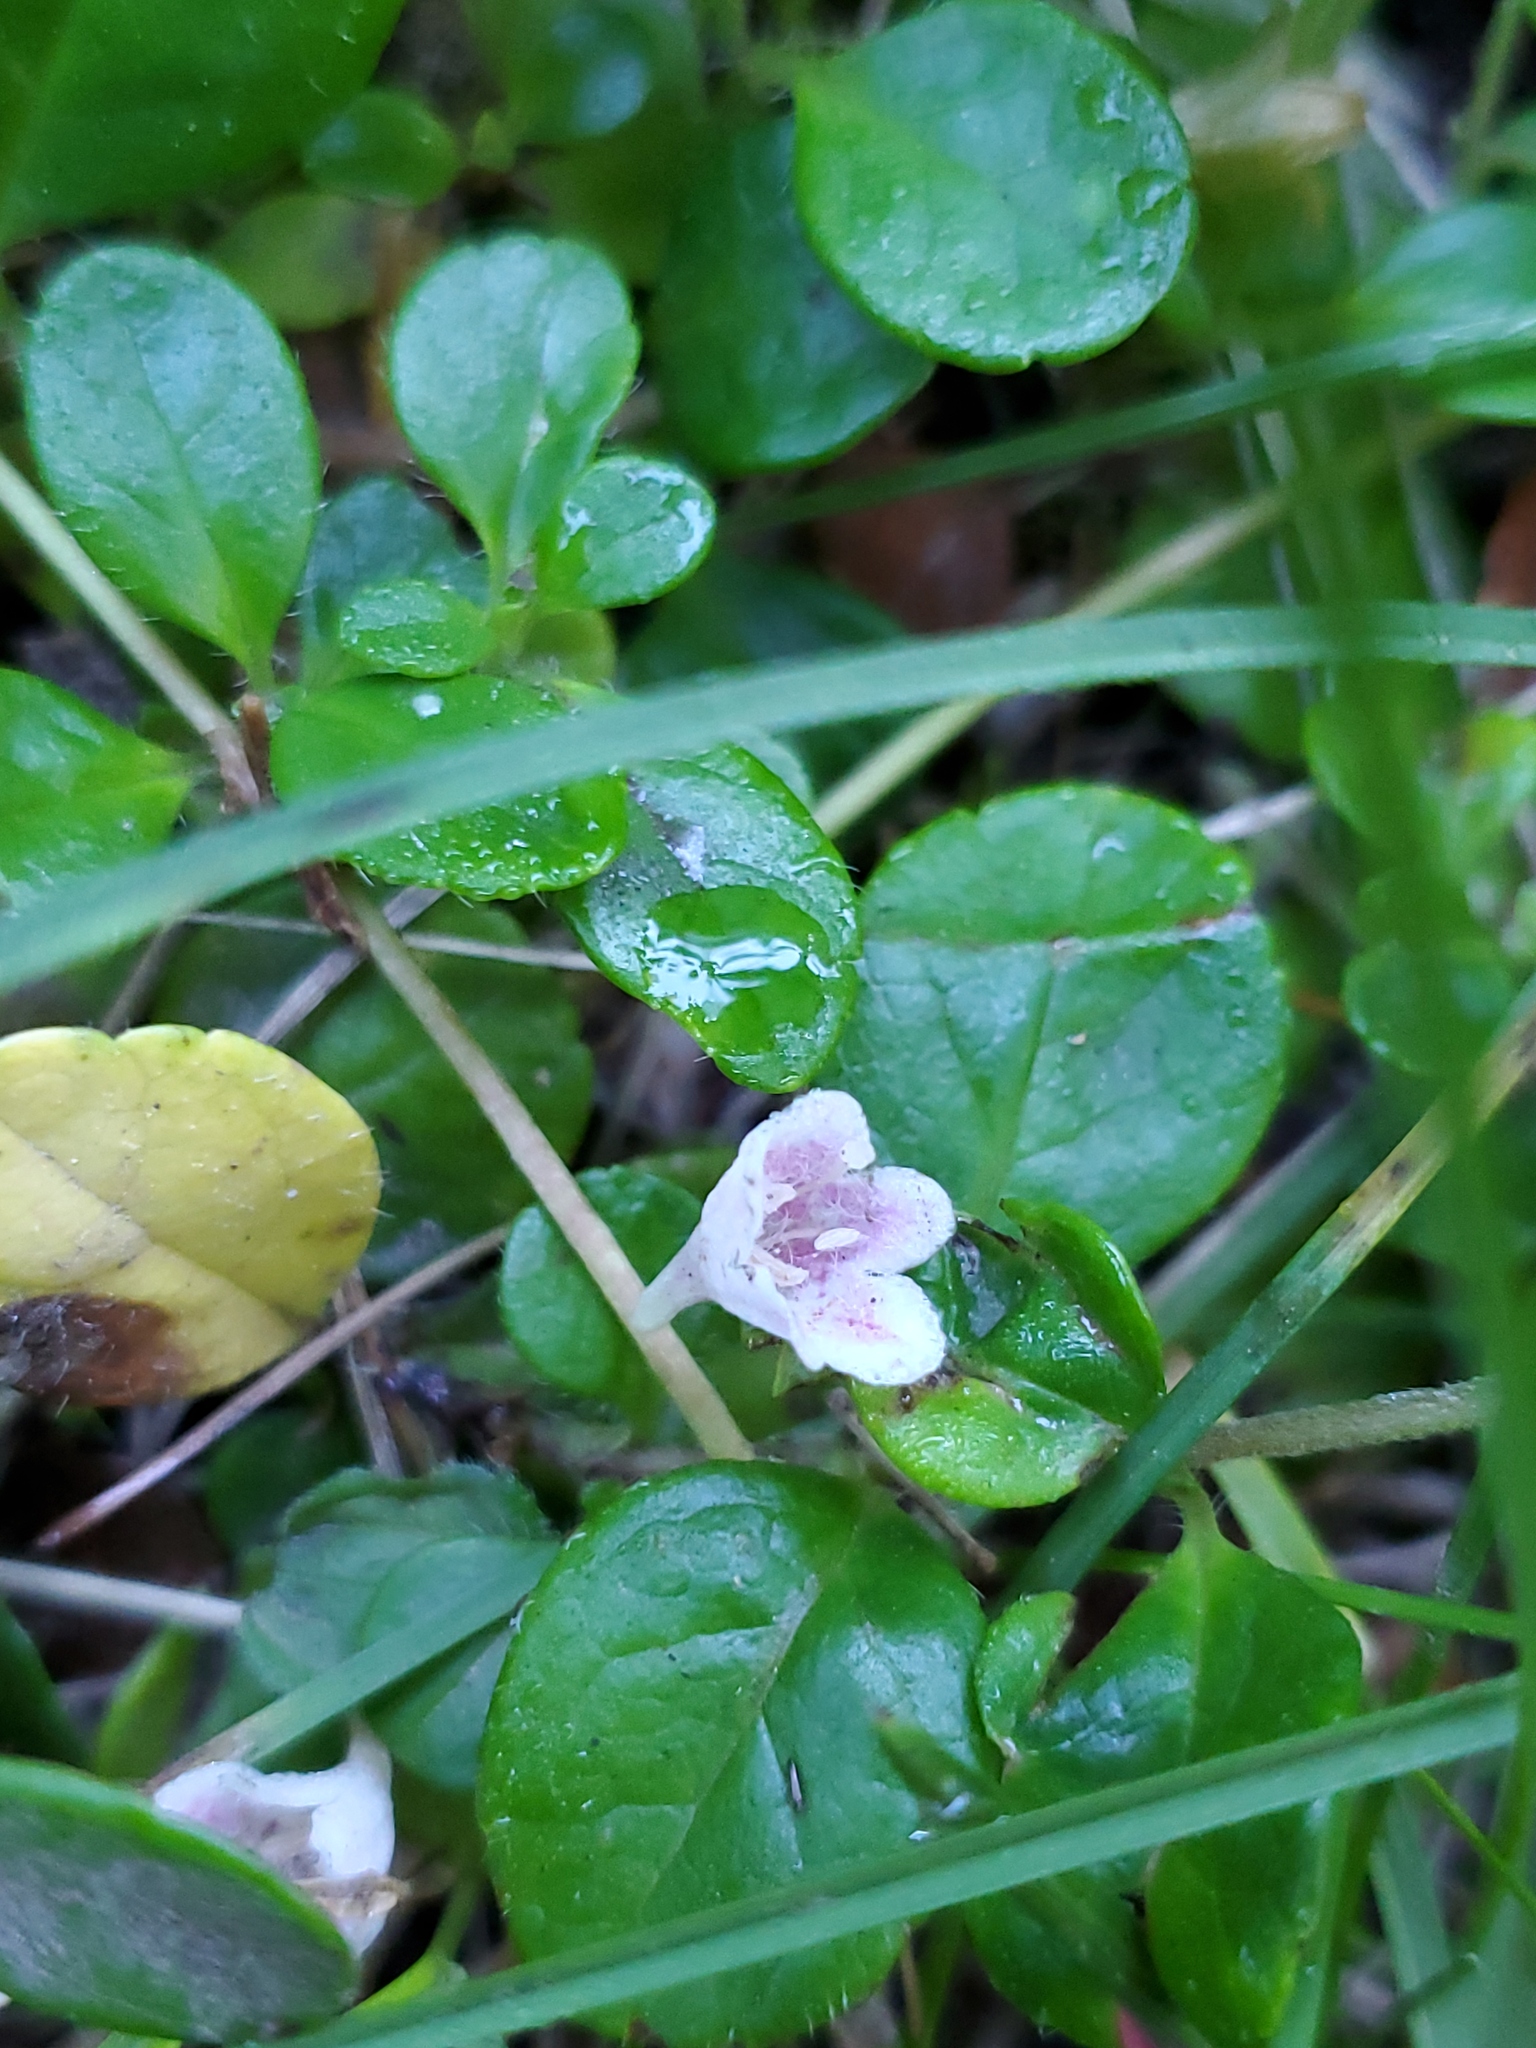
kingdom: Plantae
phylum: Tracheophyta
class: Magnoliopsida
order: Dipsacales
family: Caprifoliaceae
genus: Linnaea
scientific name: Linnaea borealis
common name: Twinflower
